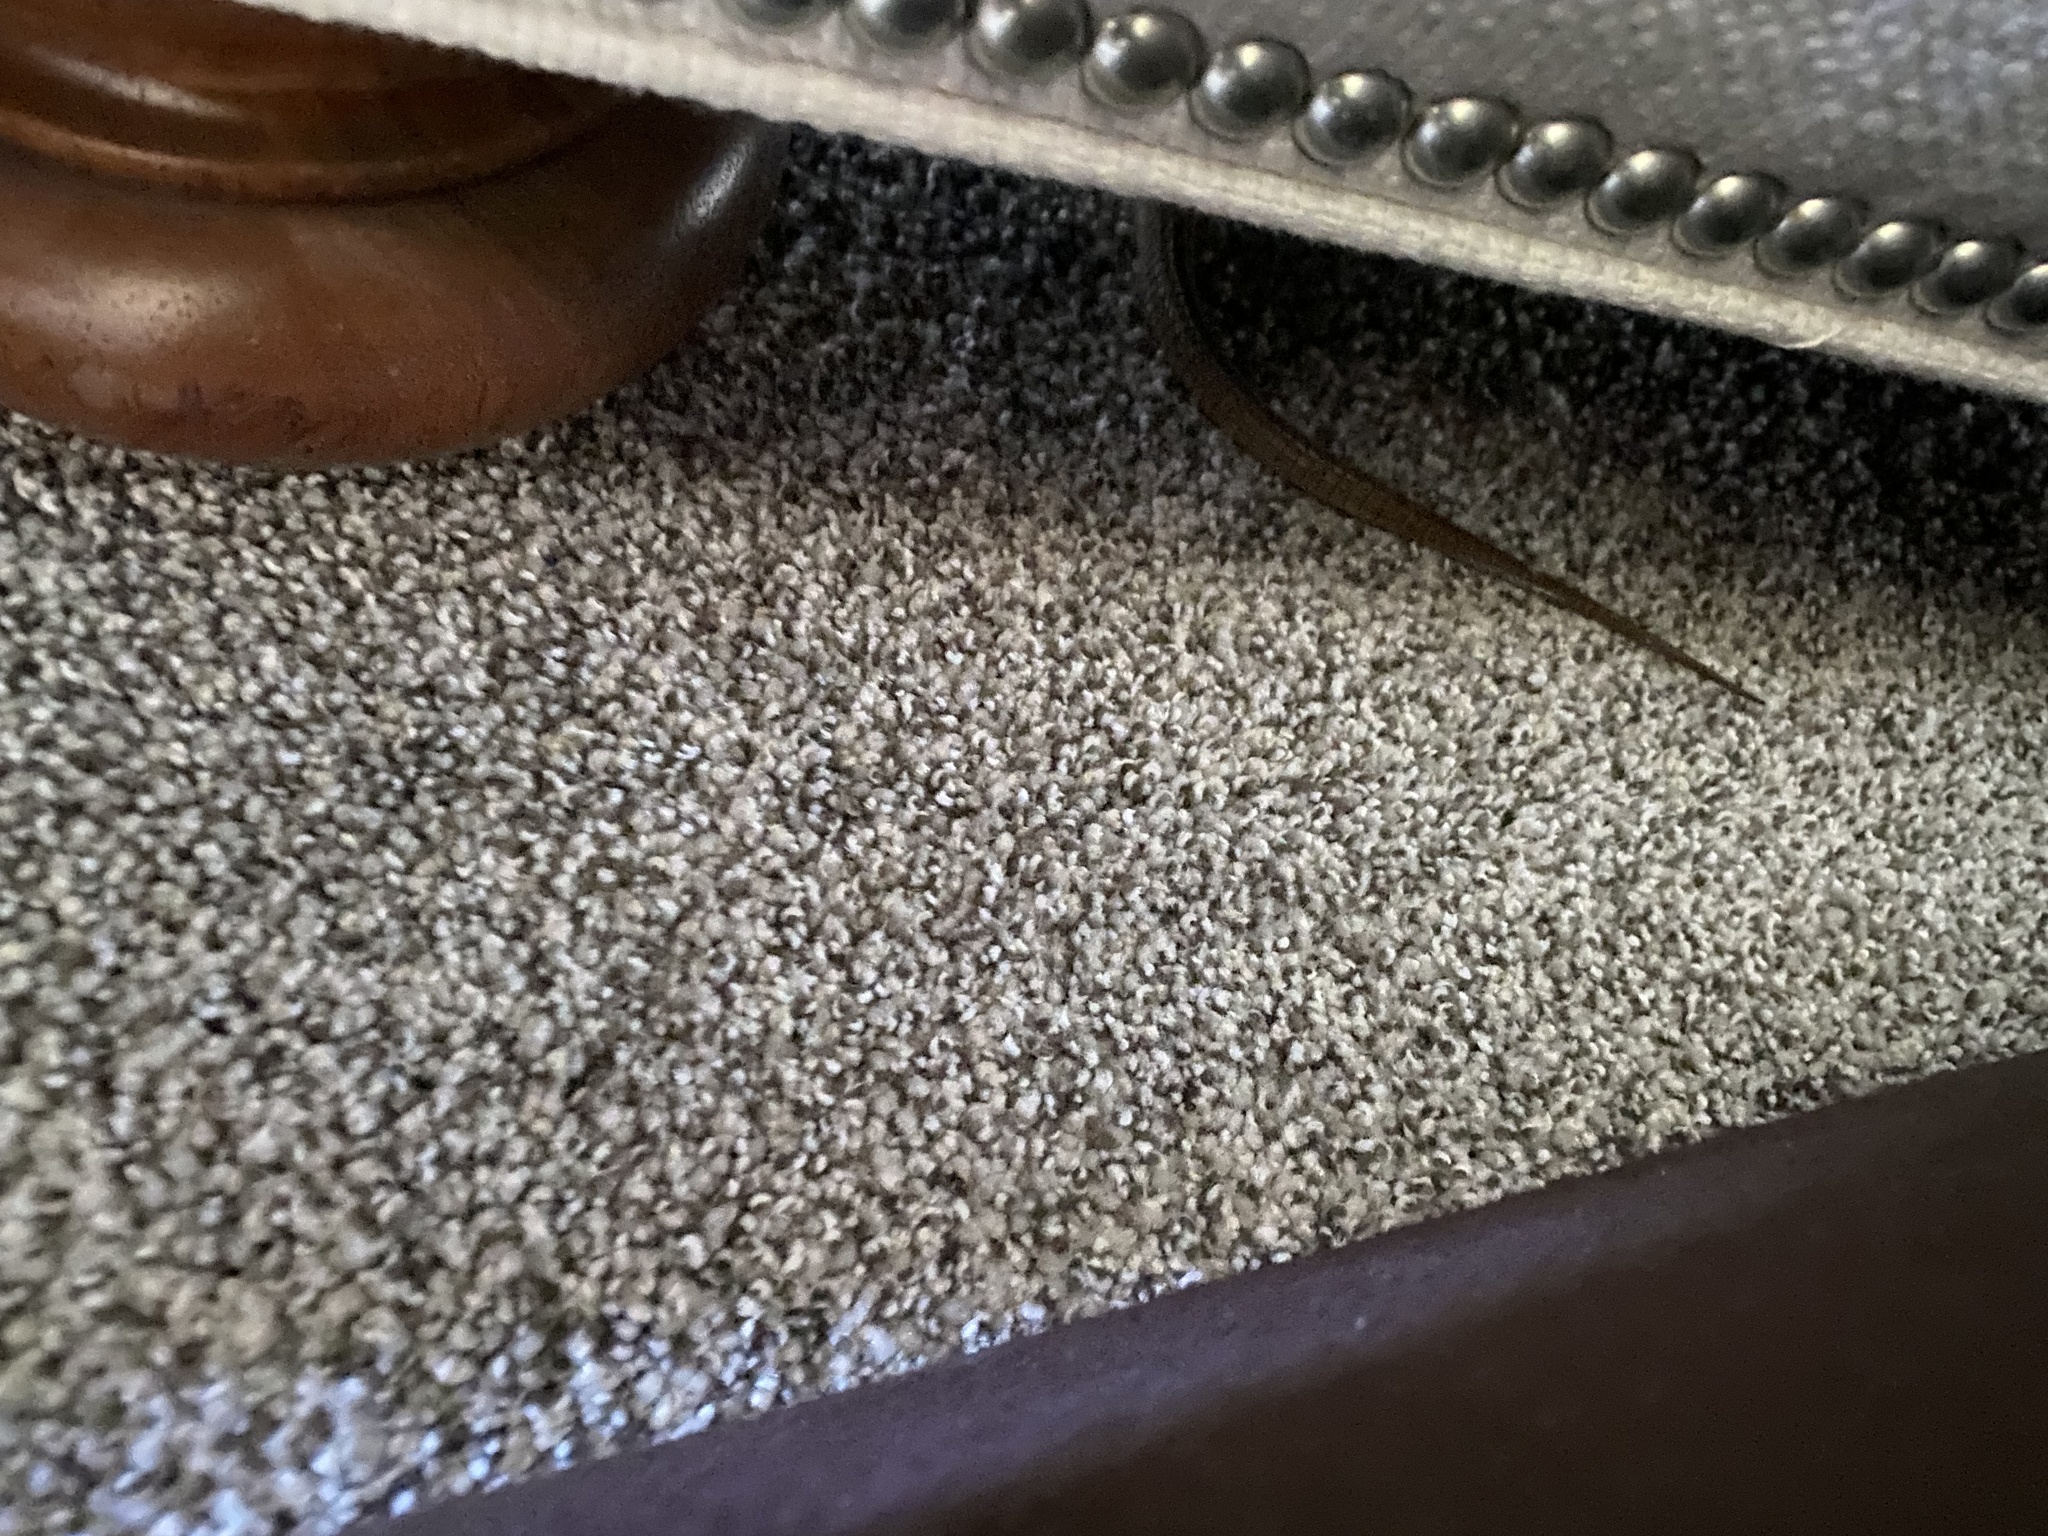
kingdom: Animalia
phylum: Chordata
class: Squamata
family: Anguidae
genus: Elgaria
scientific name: Elgaria multicarinata
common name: Southern alligator lizard
